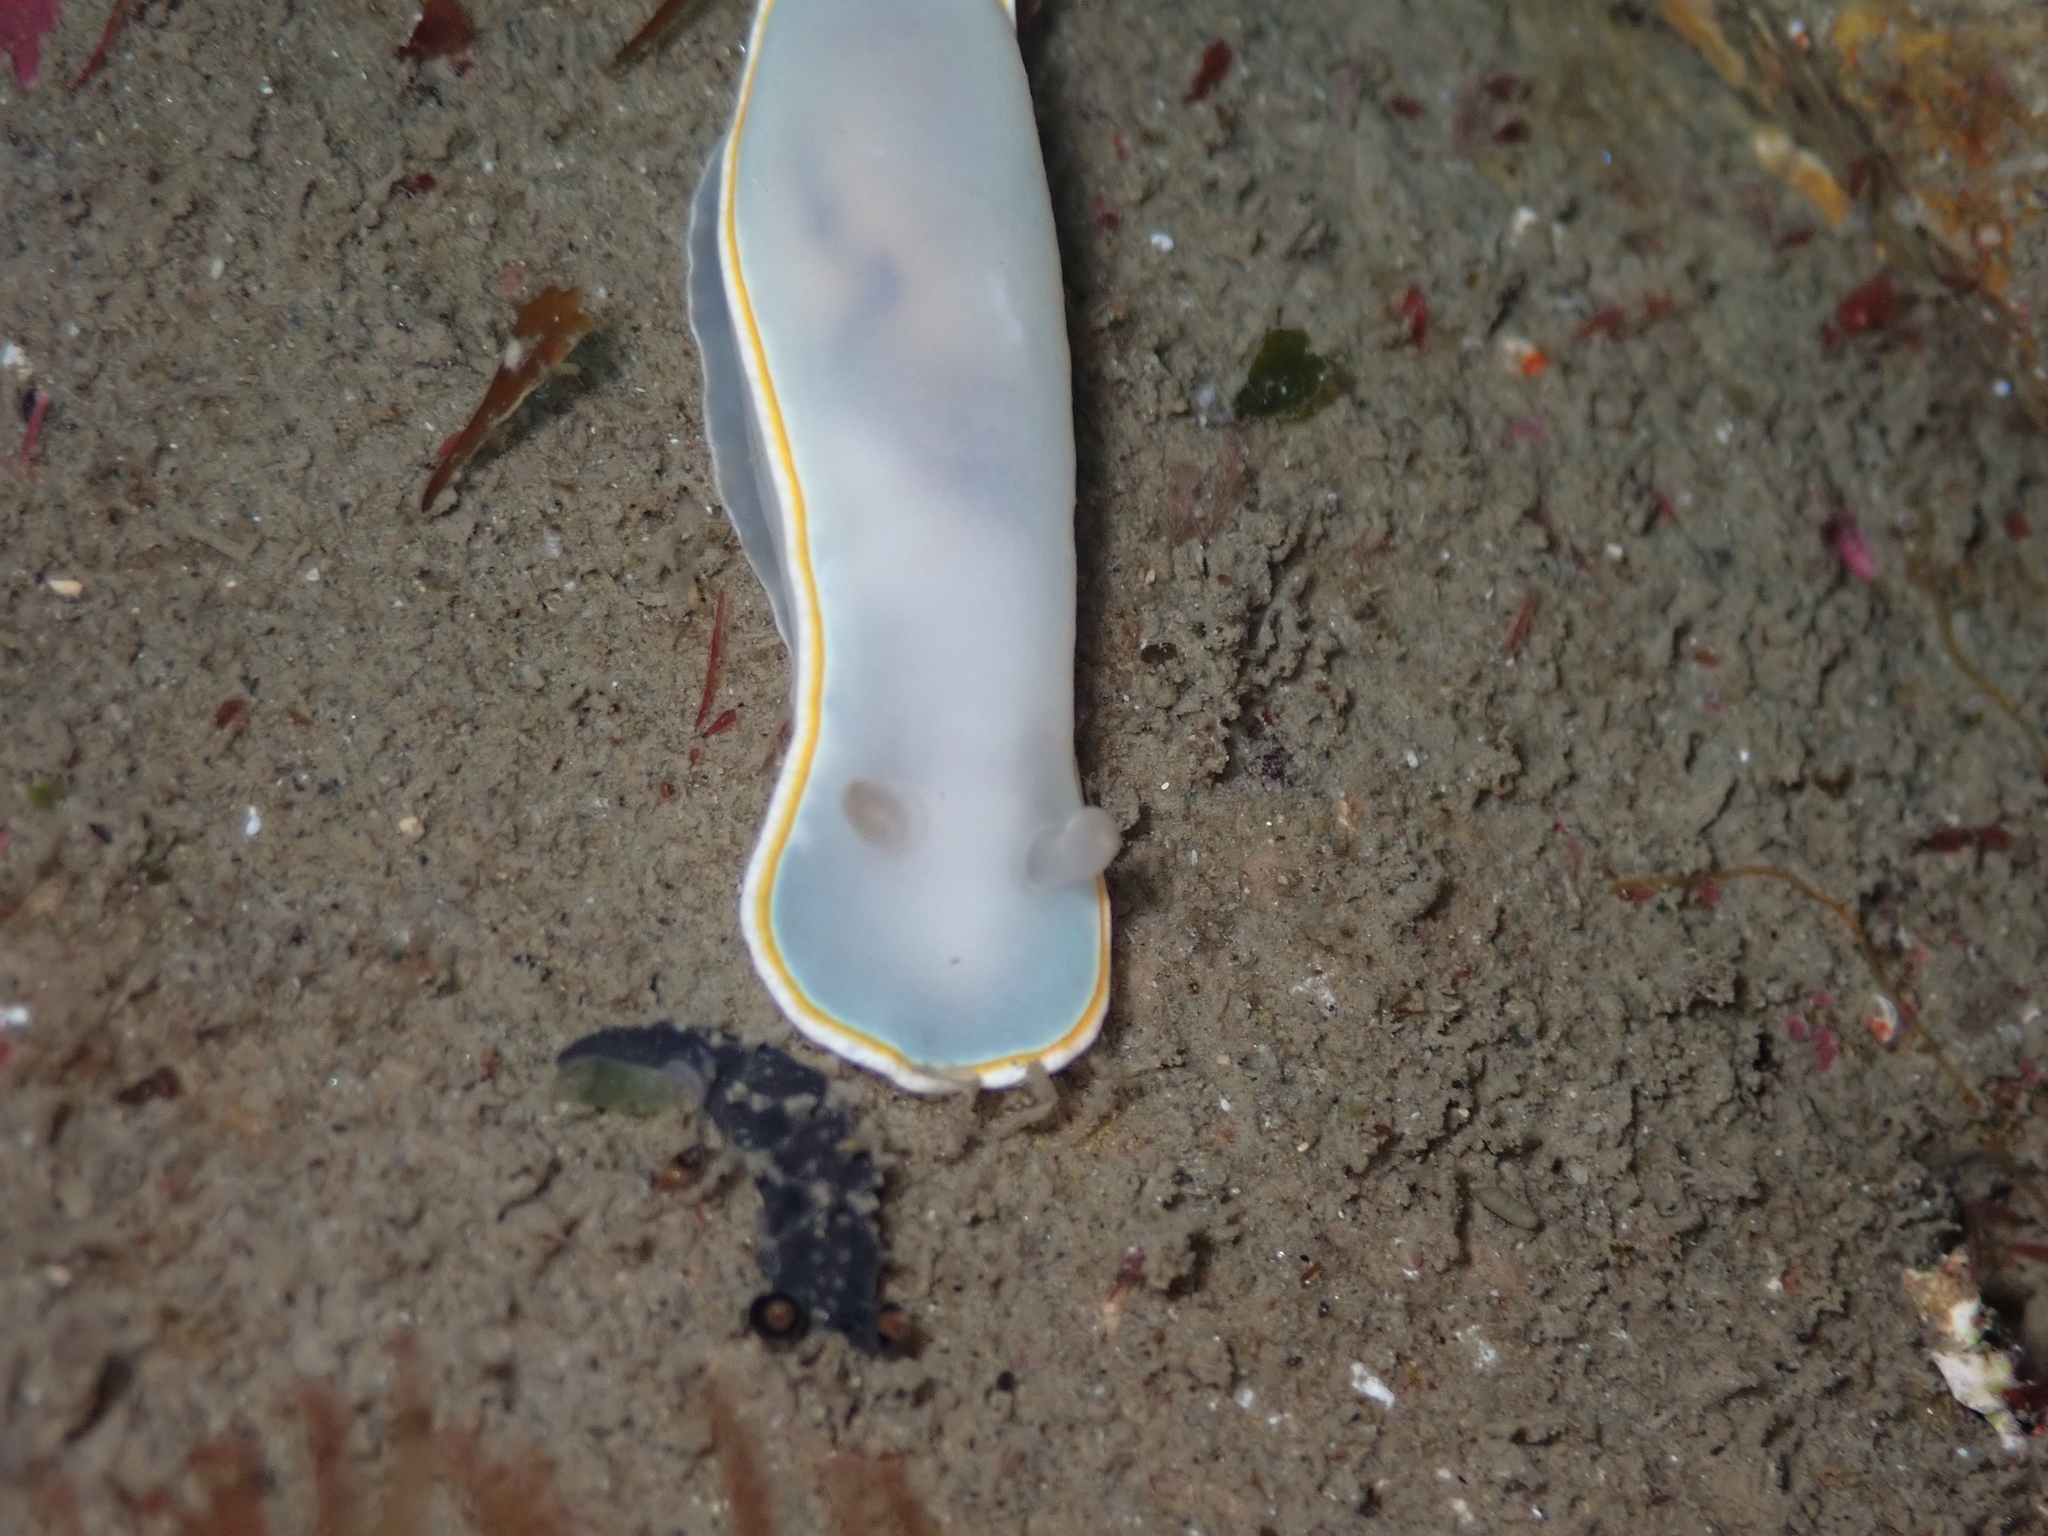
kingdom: Animalia
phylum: Mollusca
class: Gastropoda
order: Nudibranchia
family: Chromodorididae
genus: Goniobranchus
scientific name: Goniobranchus aureomarginatus
